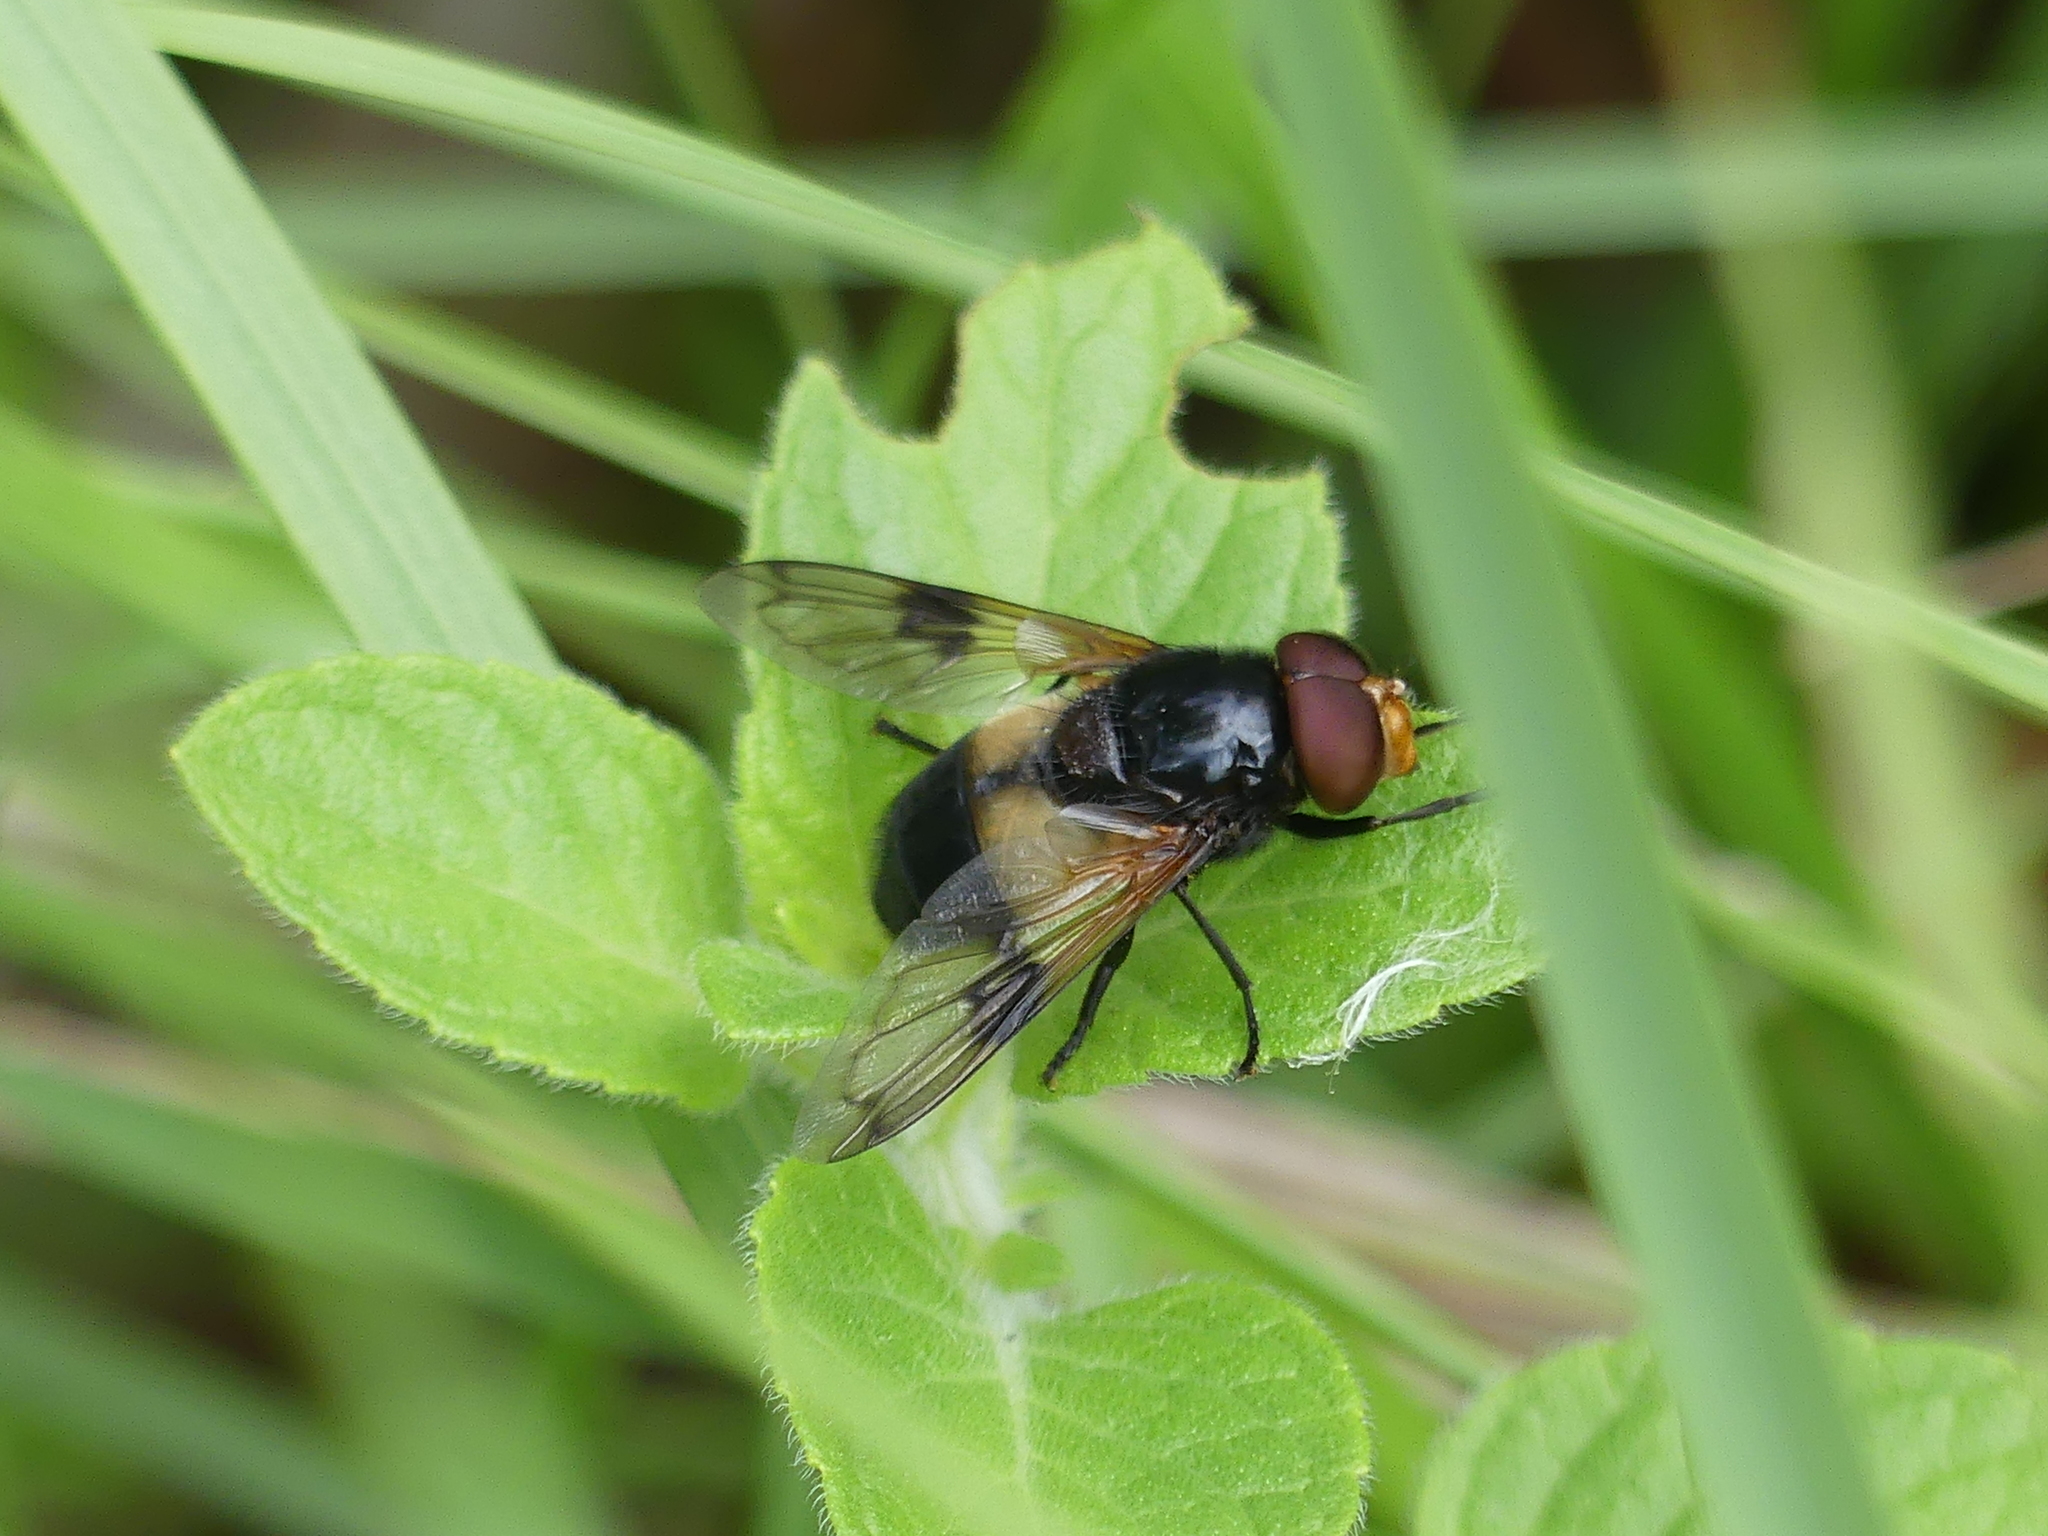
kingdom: Animalia
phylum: Arthropoda
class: Insecta
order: Diptera
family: Syrphidae
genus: Volucella
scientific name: Volucella pellucens
